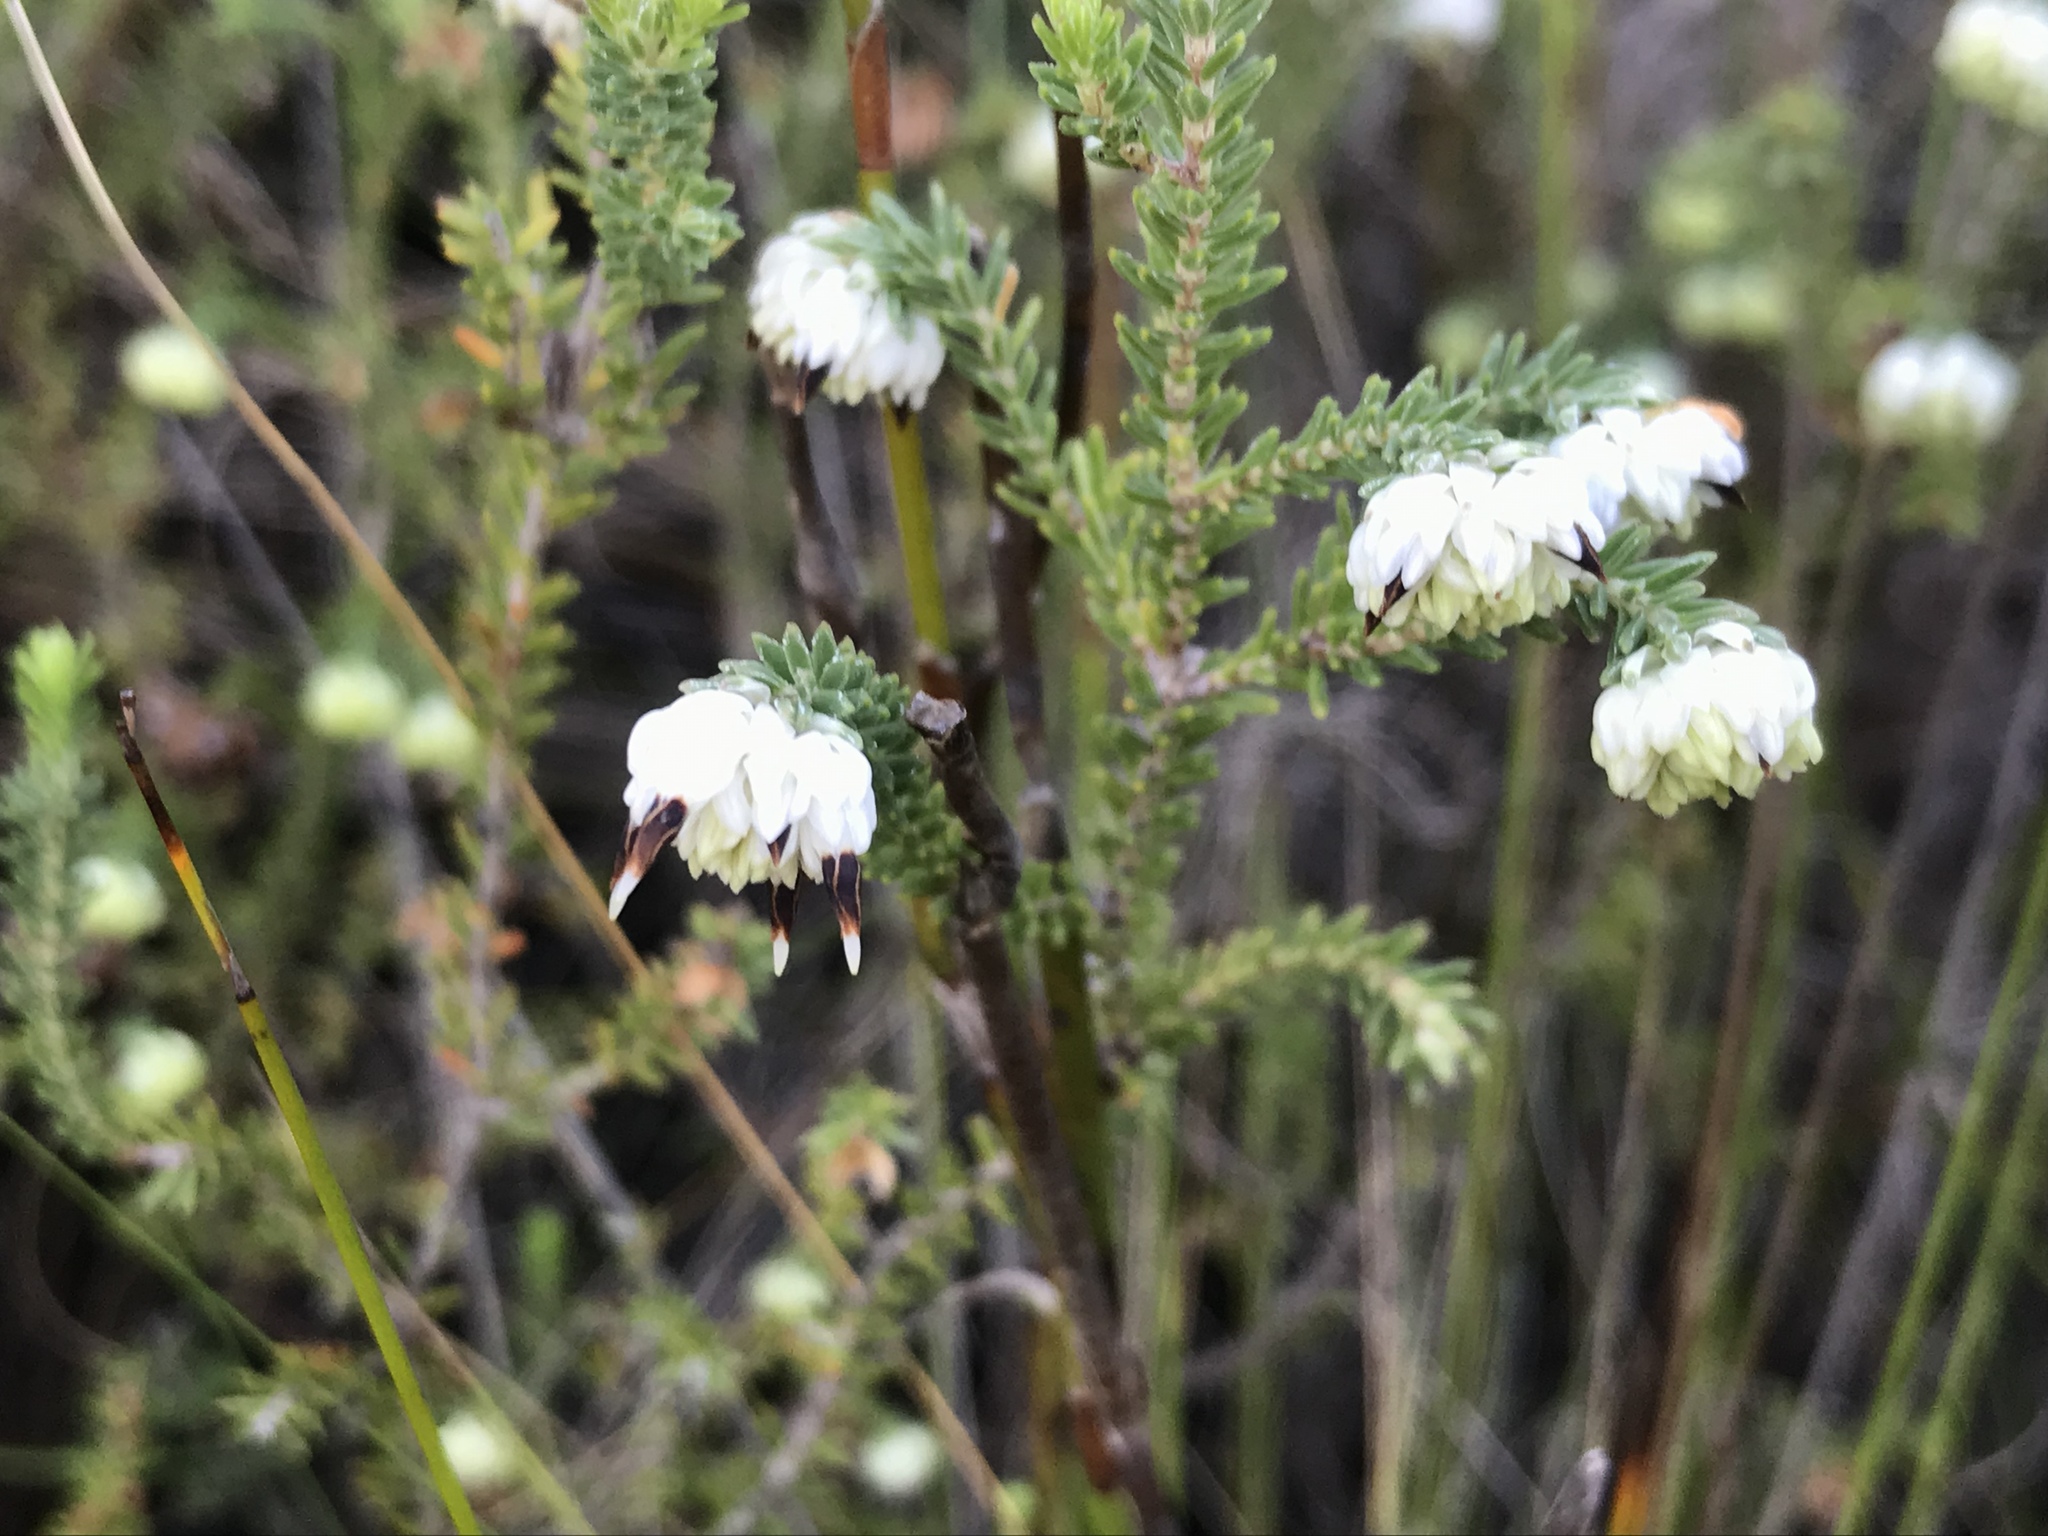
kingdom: Plantae
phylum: Tracheophyta
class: Magnoliopsida
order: Ericales
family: Ericaceae
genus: Erica
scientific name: Erica cumuliflora
